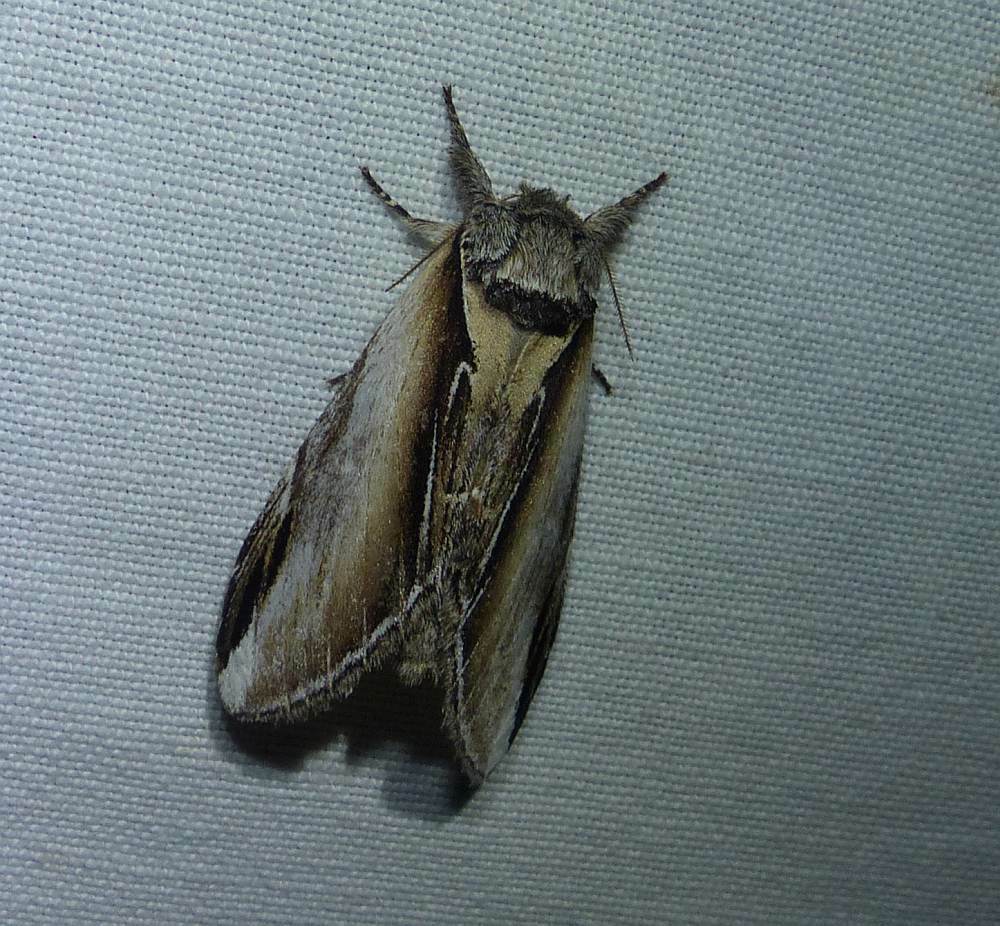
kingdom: Animalia
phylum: Arthropoda
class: Insecta
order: Lepidoptera
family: Notodontidae
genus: Pheosia
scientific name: Pheosia rimosa
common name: Black-rimmed prominent
